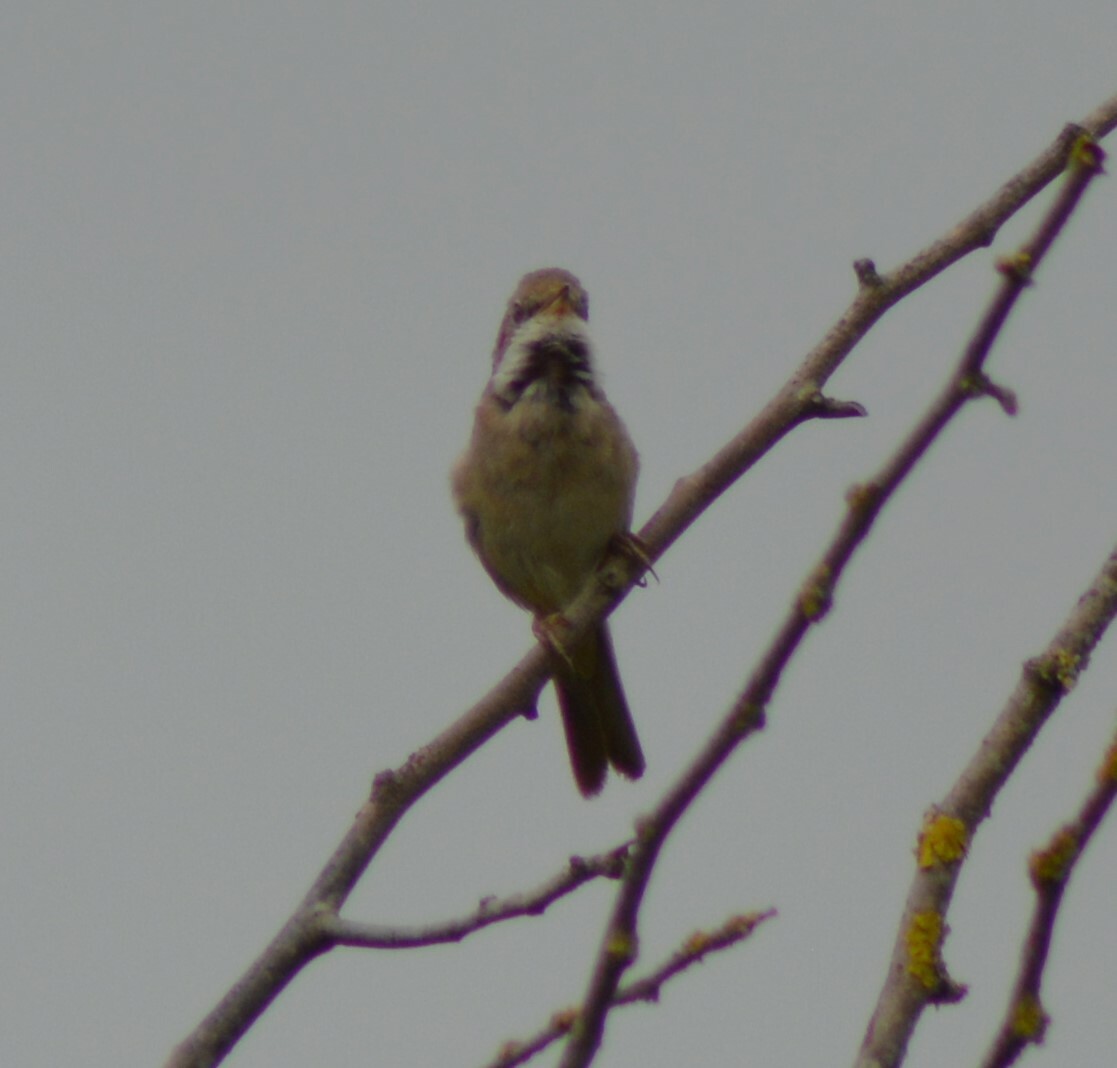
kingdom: Animalia
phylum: Chordata
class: Aves
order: Passeriformes
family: Sylviidae
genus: Sylvia
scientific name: Sylvia communis
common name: Common whitethroat
